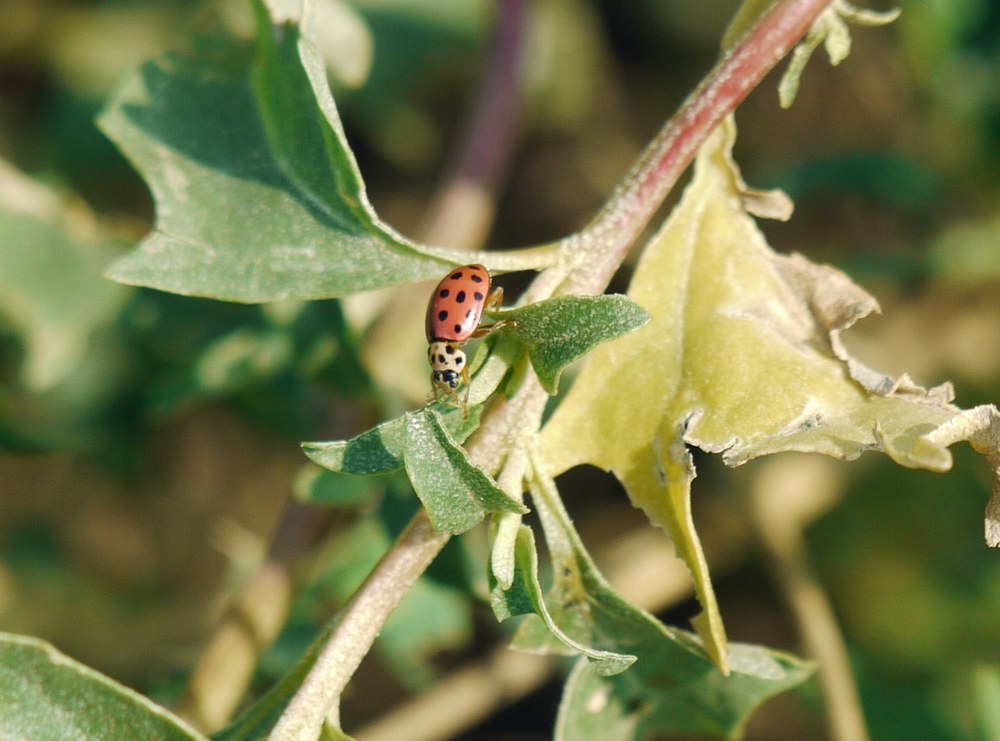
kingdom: Animalia
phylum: Arthropoda
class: Insecta
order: Coleoptera
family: Coccinellidae
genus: Bulaea
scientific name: Bulaea lichatschovi
